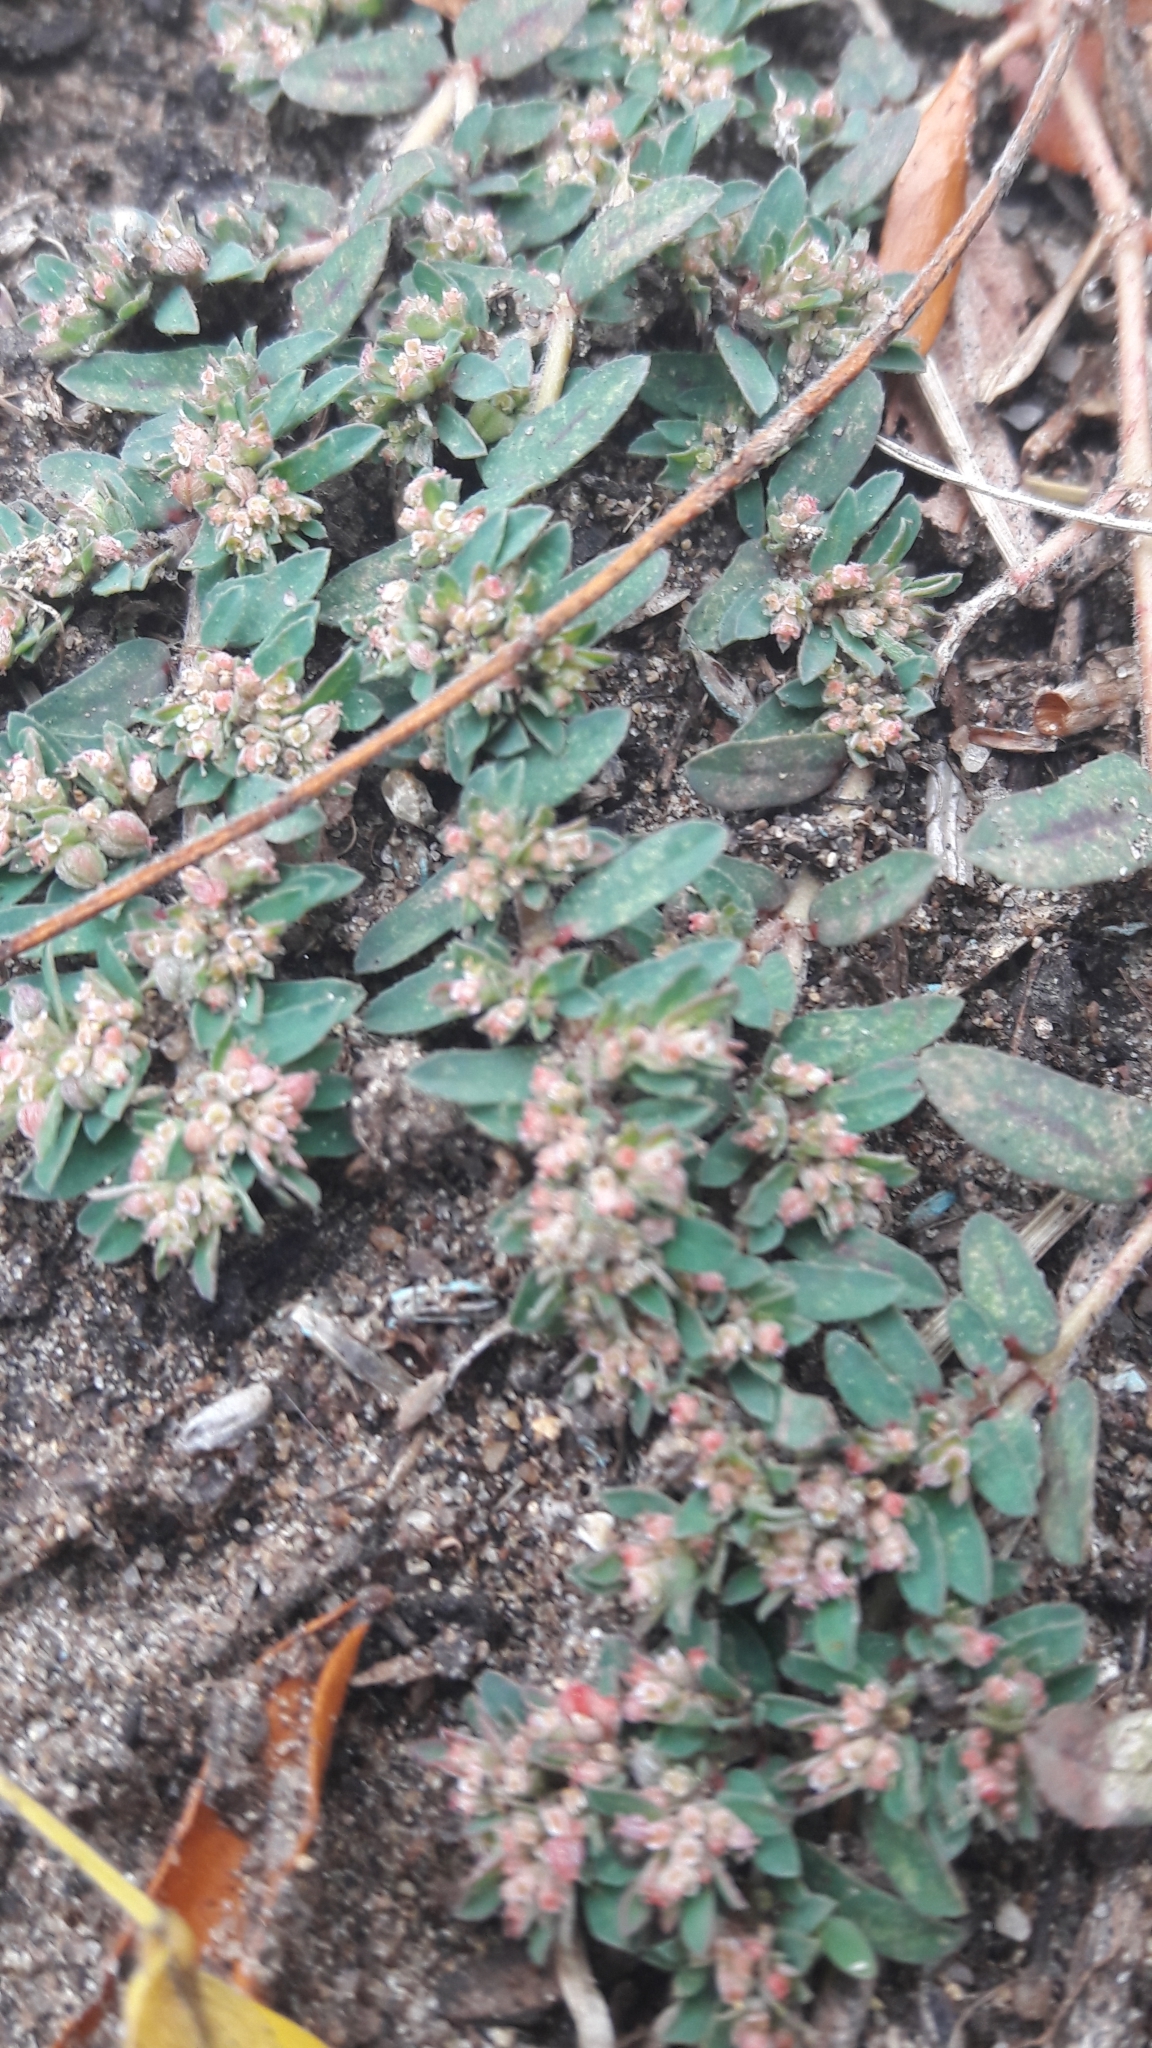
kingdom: Plantae
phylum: Tracheophyta
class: Magnoliopsida
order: Malpighiales
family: Euphorbiaceae
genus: Euphorbia
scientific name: Euphorbia maculata
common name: Spotted spurge
